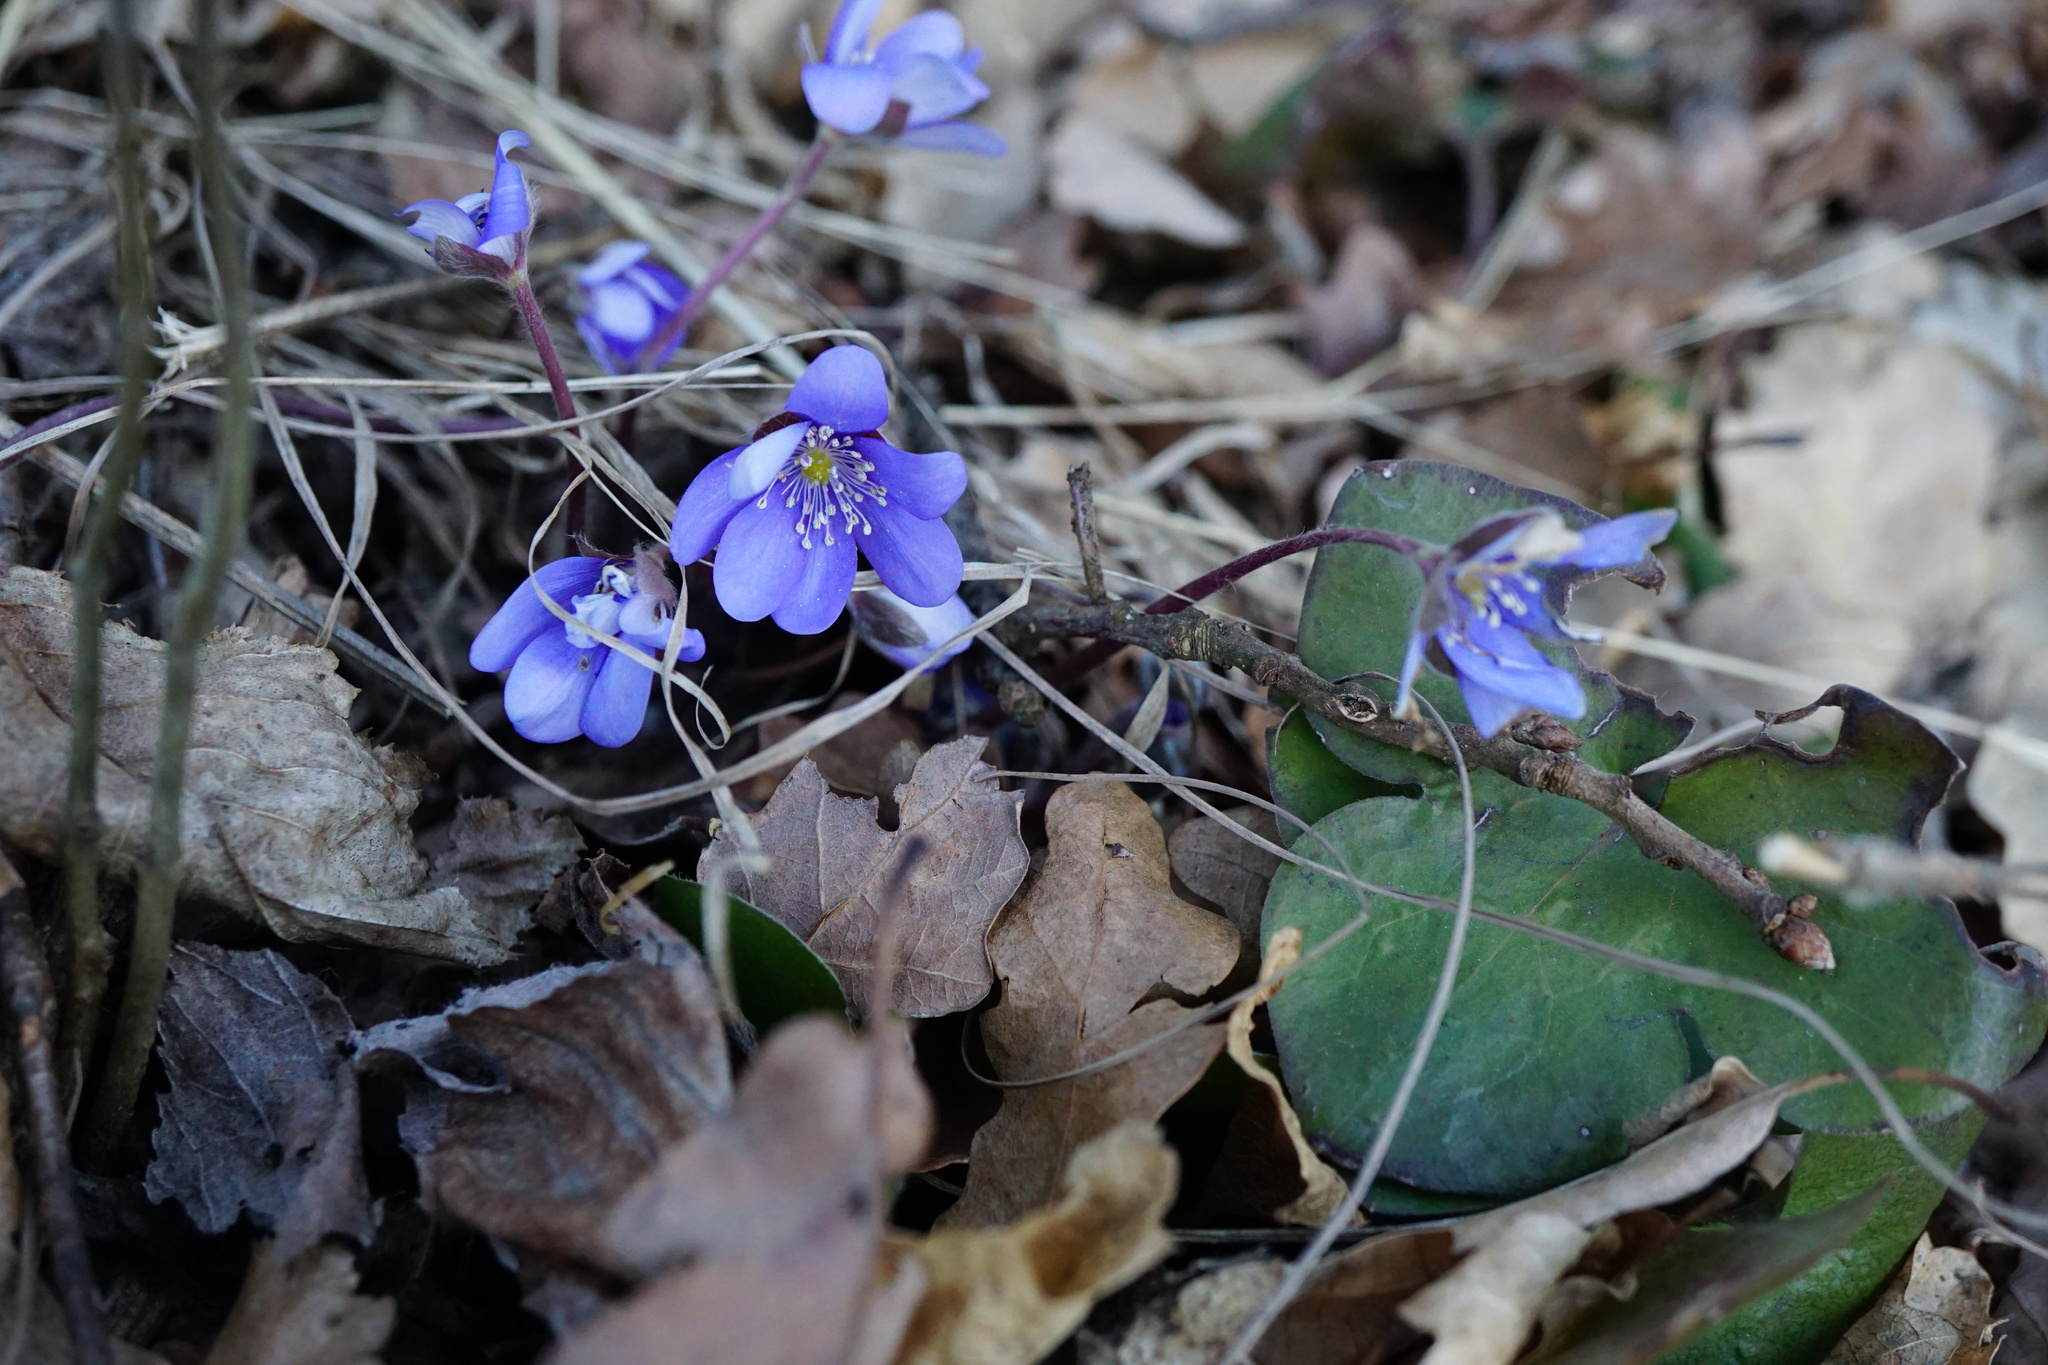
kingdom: Plantae
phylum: Tracheophyta
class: Magnoliopsida
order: Ranunculales
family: Ranunculaceae
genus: Hepatica
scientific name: Hepatica nobilis
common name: Liverleaf
